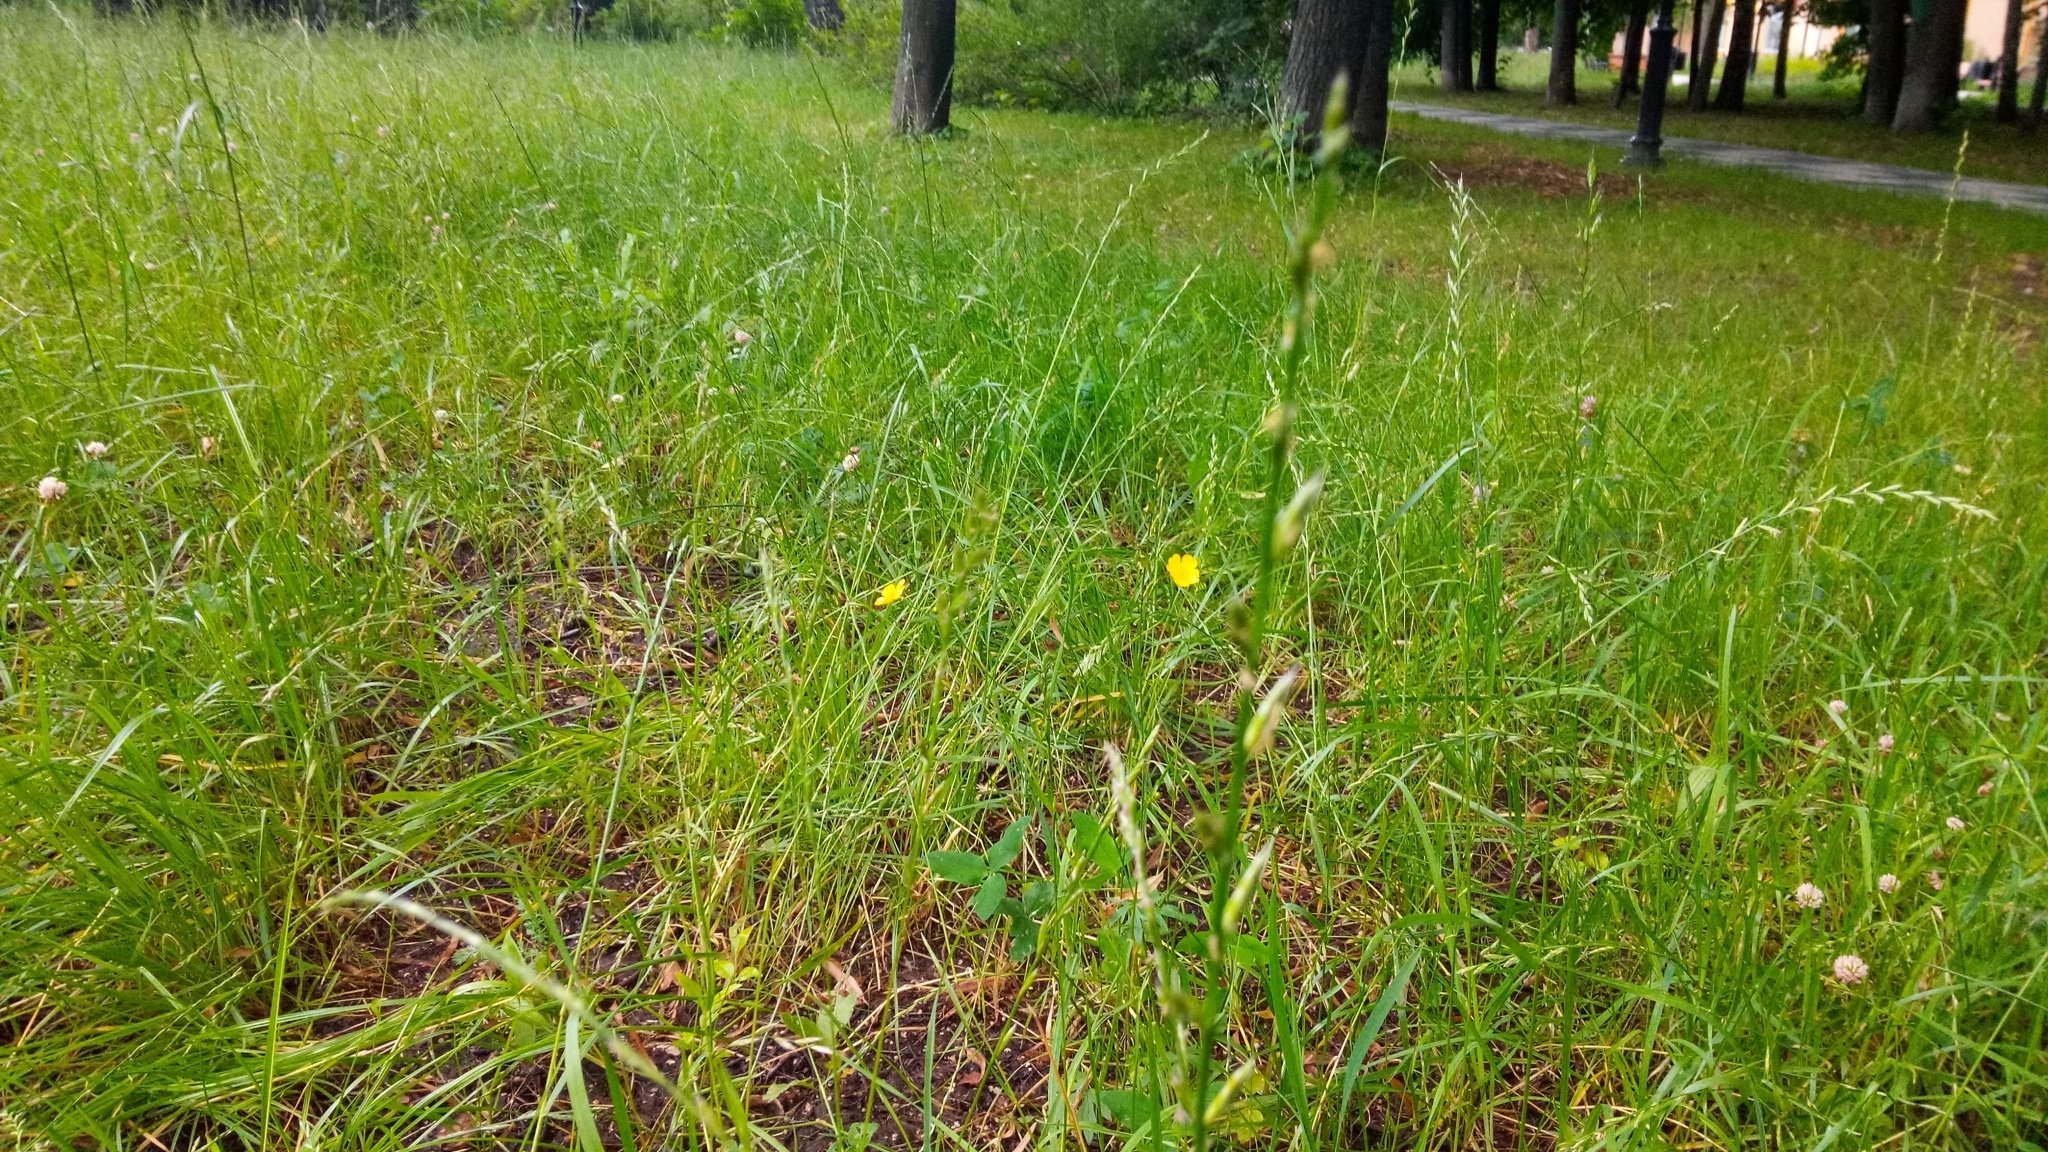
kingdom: Plantae
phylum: Tracheophyta
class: Magnoliopsida
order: Ranunculales
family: Ranunculaceae
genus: Ranunculus
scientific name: Ranunculus acris
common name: Meadow buttercup
